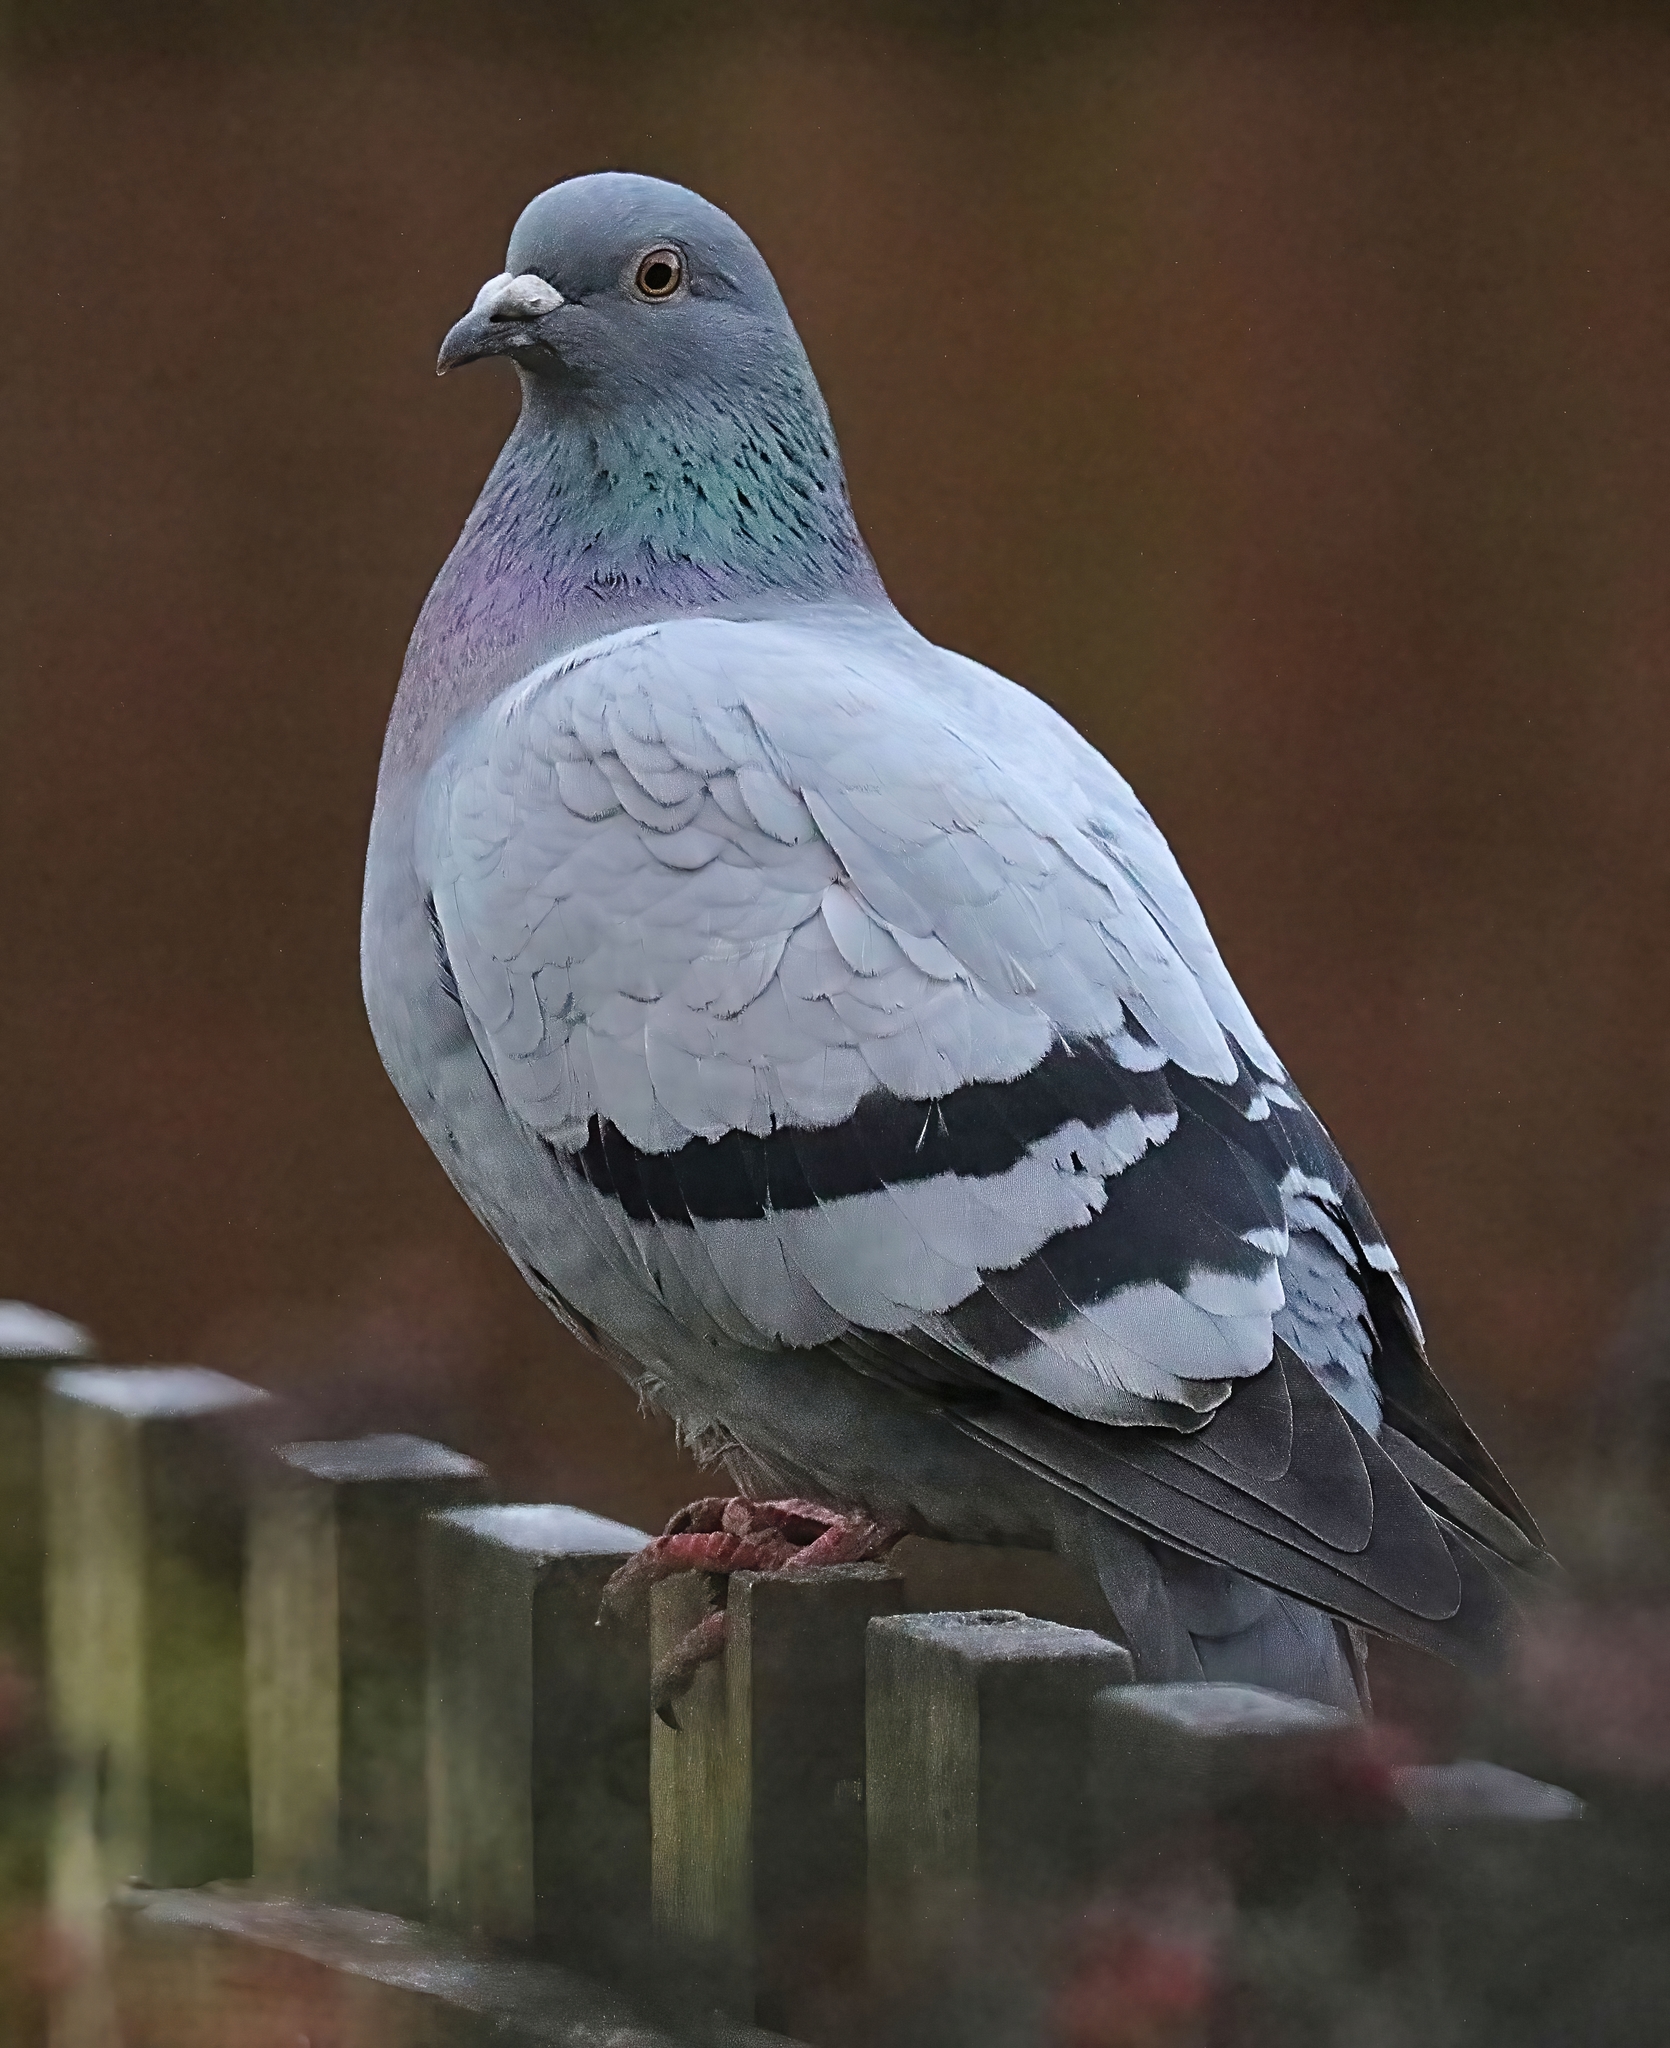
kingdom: Animalia
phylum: Chordata
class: Aves
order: Columbiformes
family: Columbidae
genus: Columba
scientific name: Columba livia
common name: Rock pigeon
